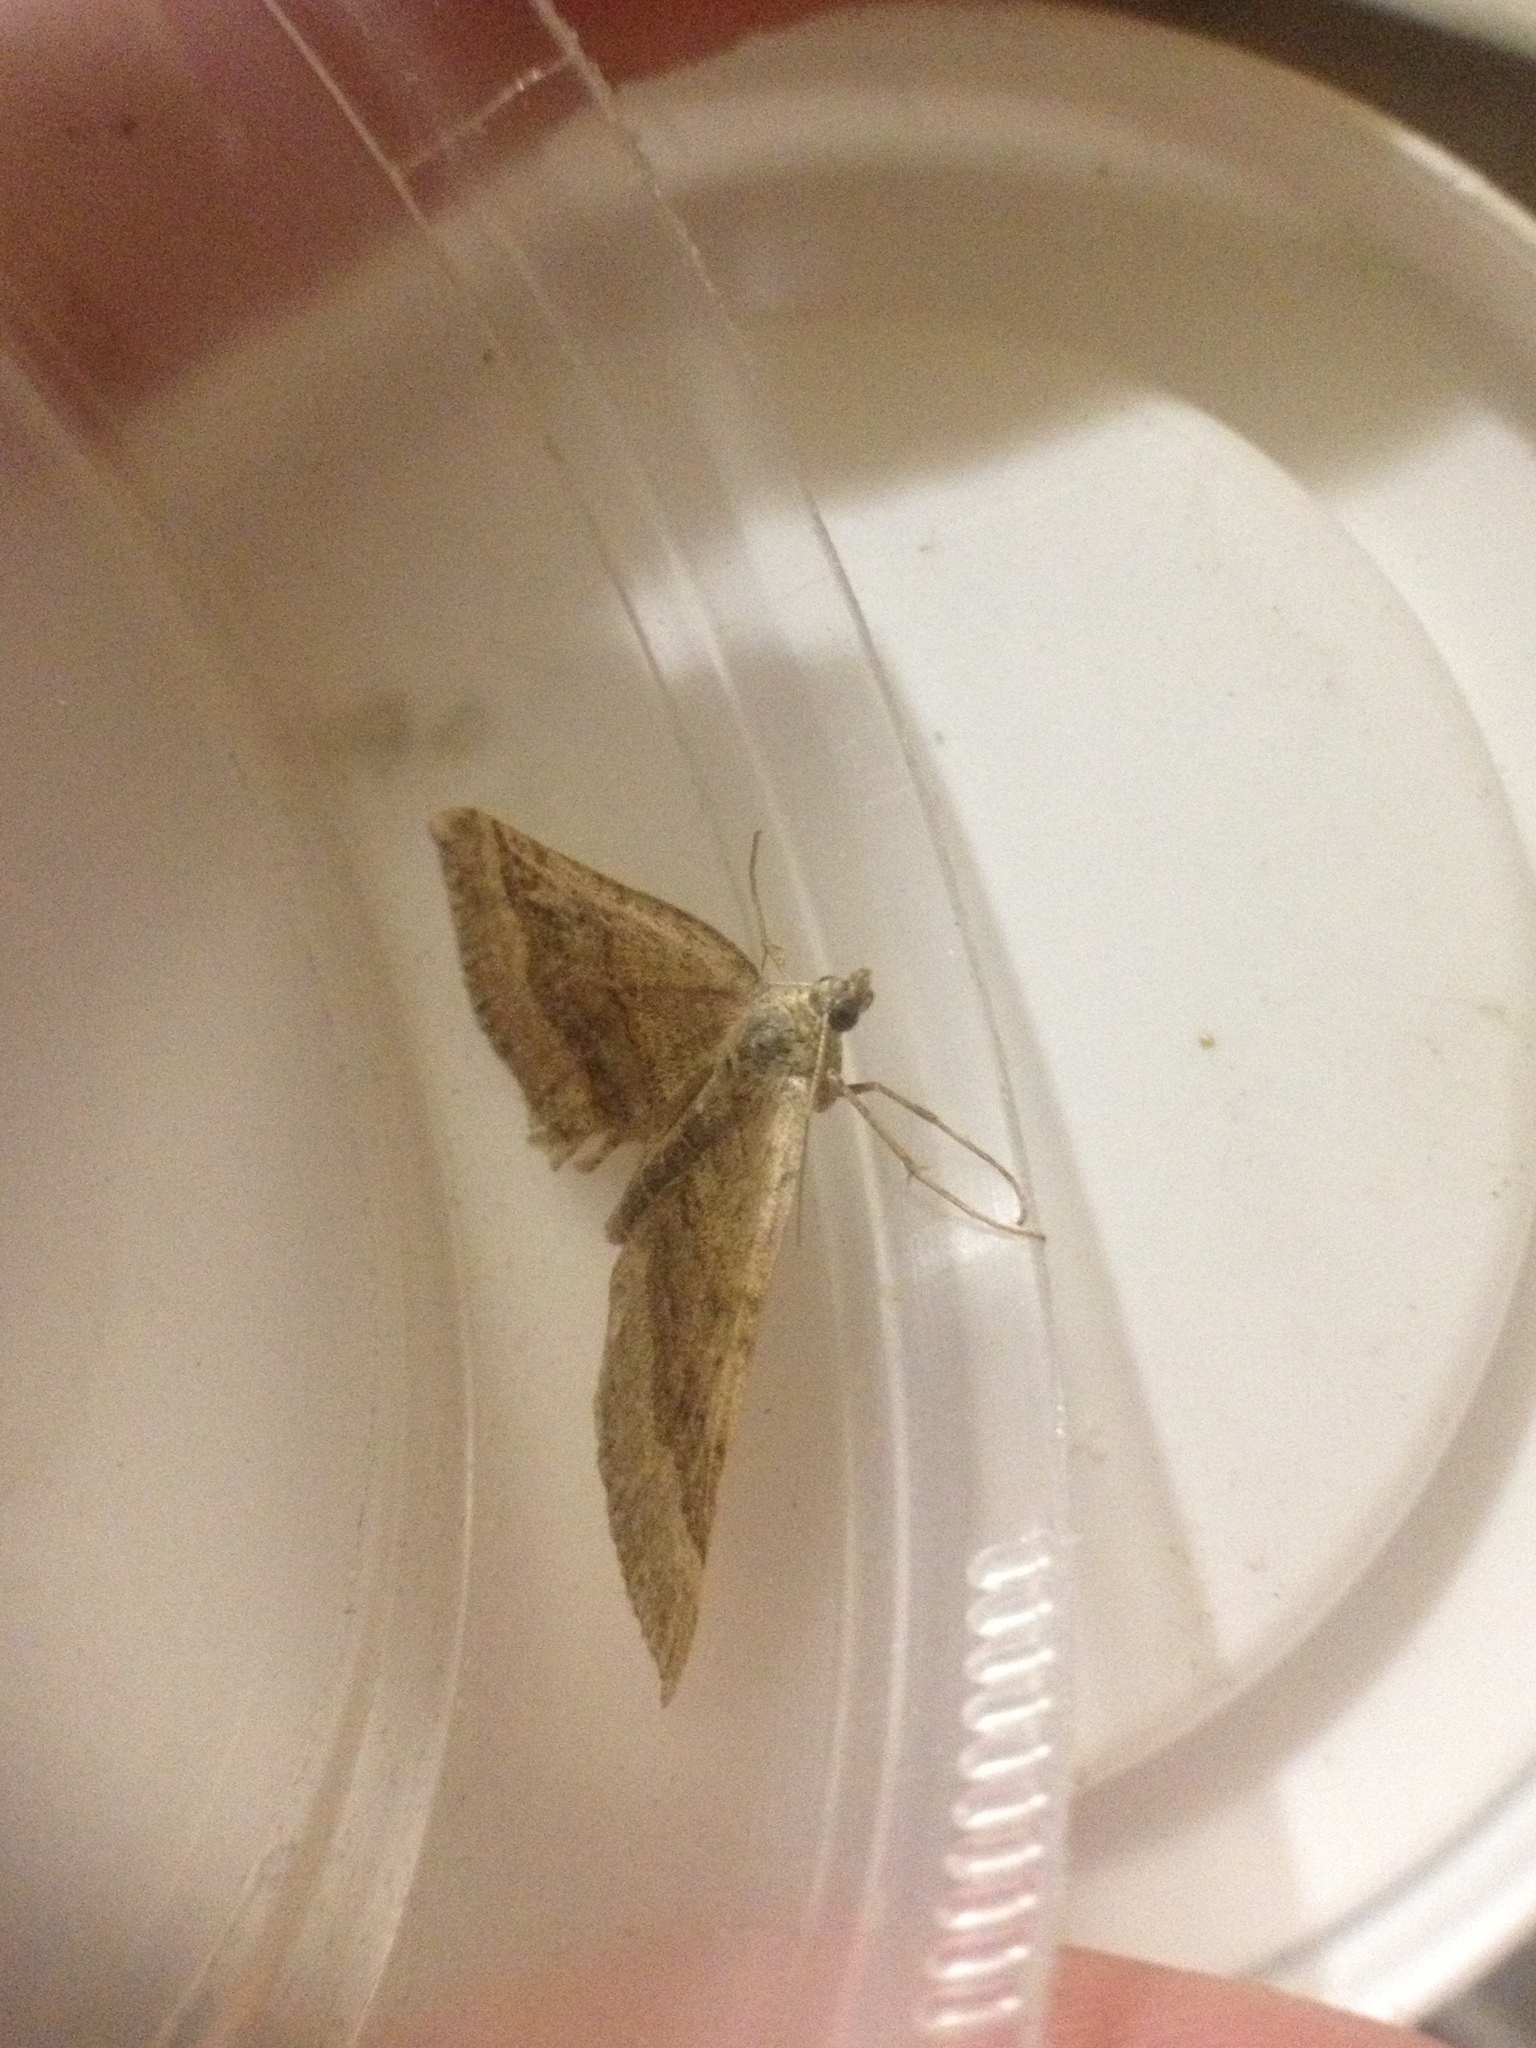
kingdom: Animalia
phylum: Arthropoda
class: Insecta
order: Lepidoptera
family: Geometridae
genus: Scotopteryx
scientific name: Scotopteryx chenopodiata
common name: Shaded broad-bar
